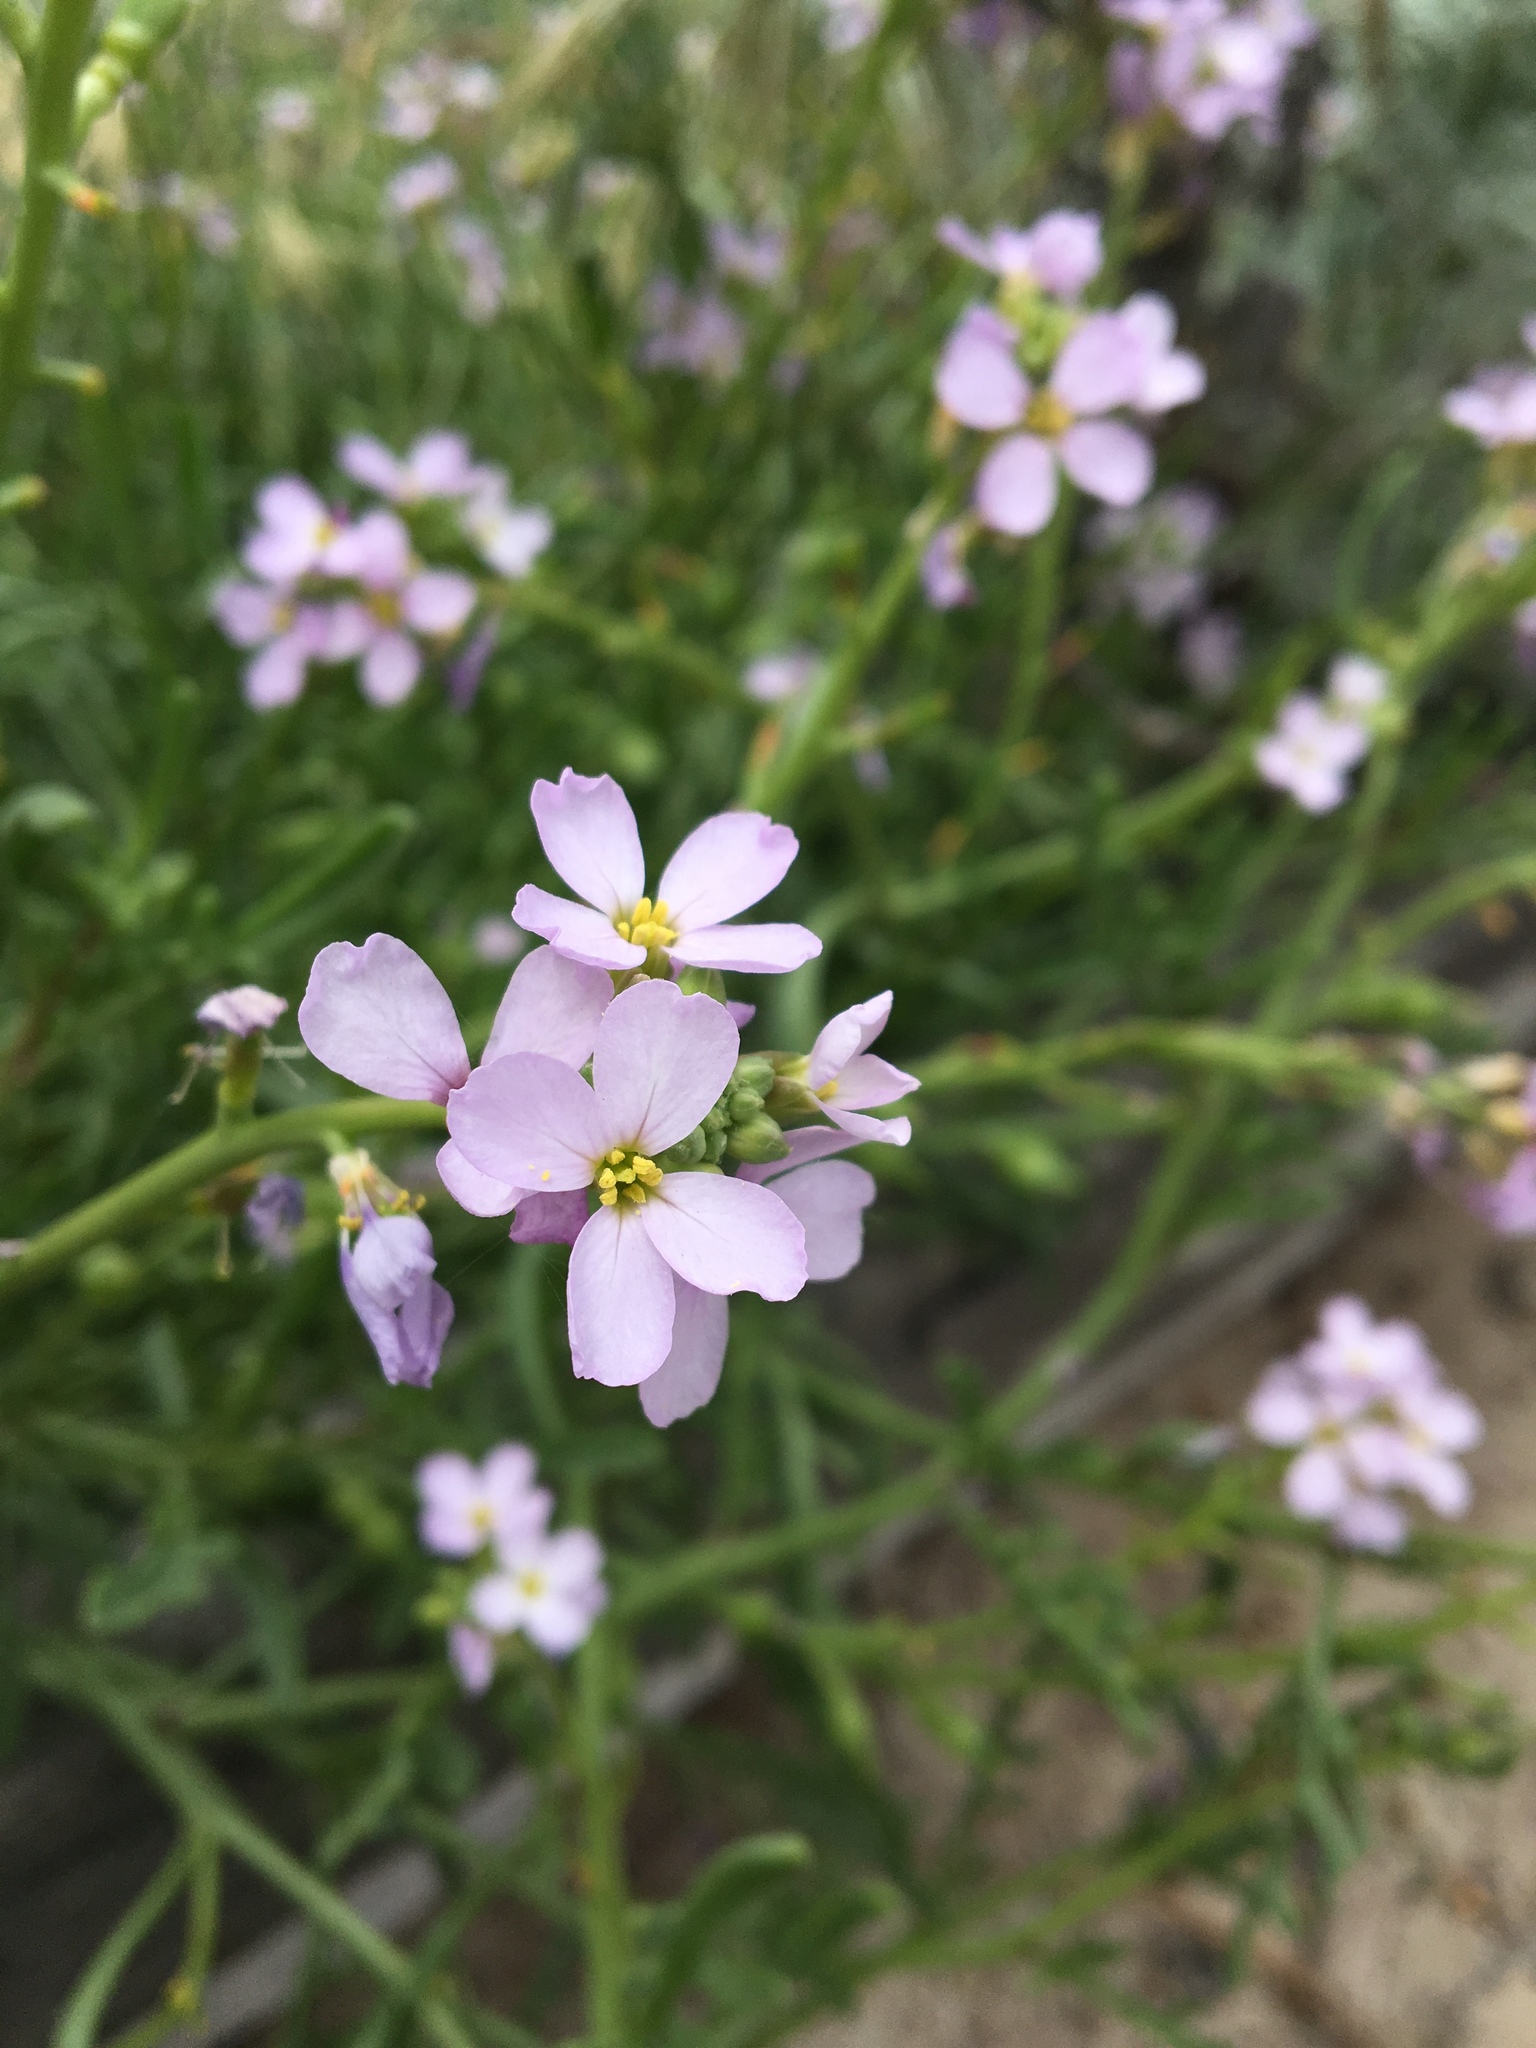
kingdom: Plantae
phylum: Tracheophyta
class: Magnoliopsida
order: Brassicales
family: Brassicaceae
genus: Cakile
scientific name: Cakile maritima
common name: Sea rocket
